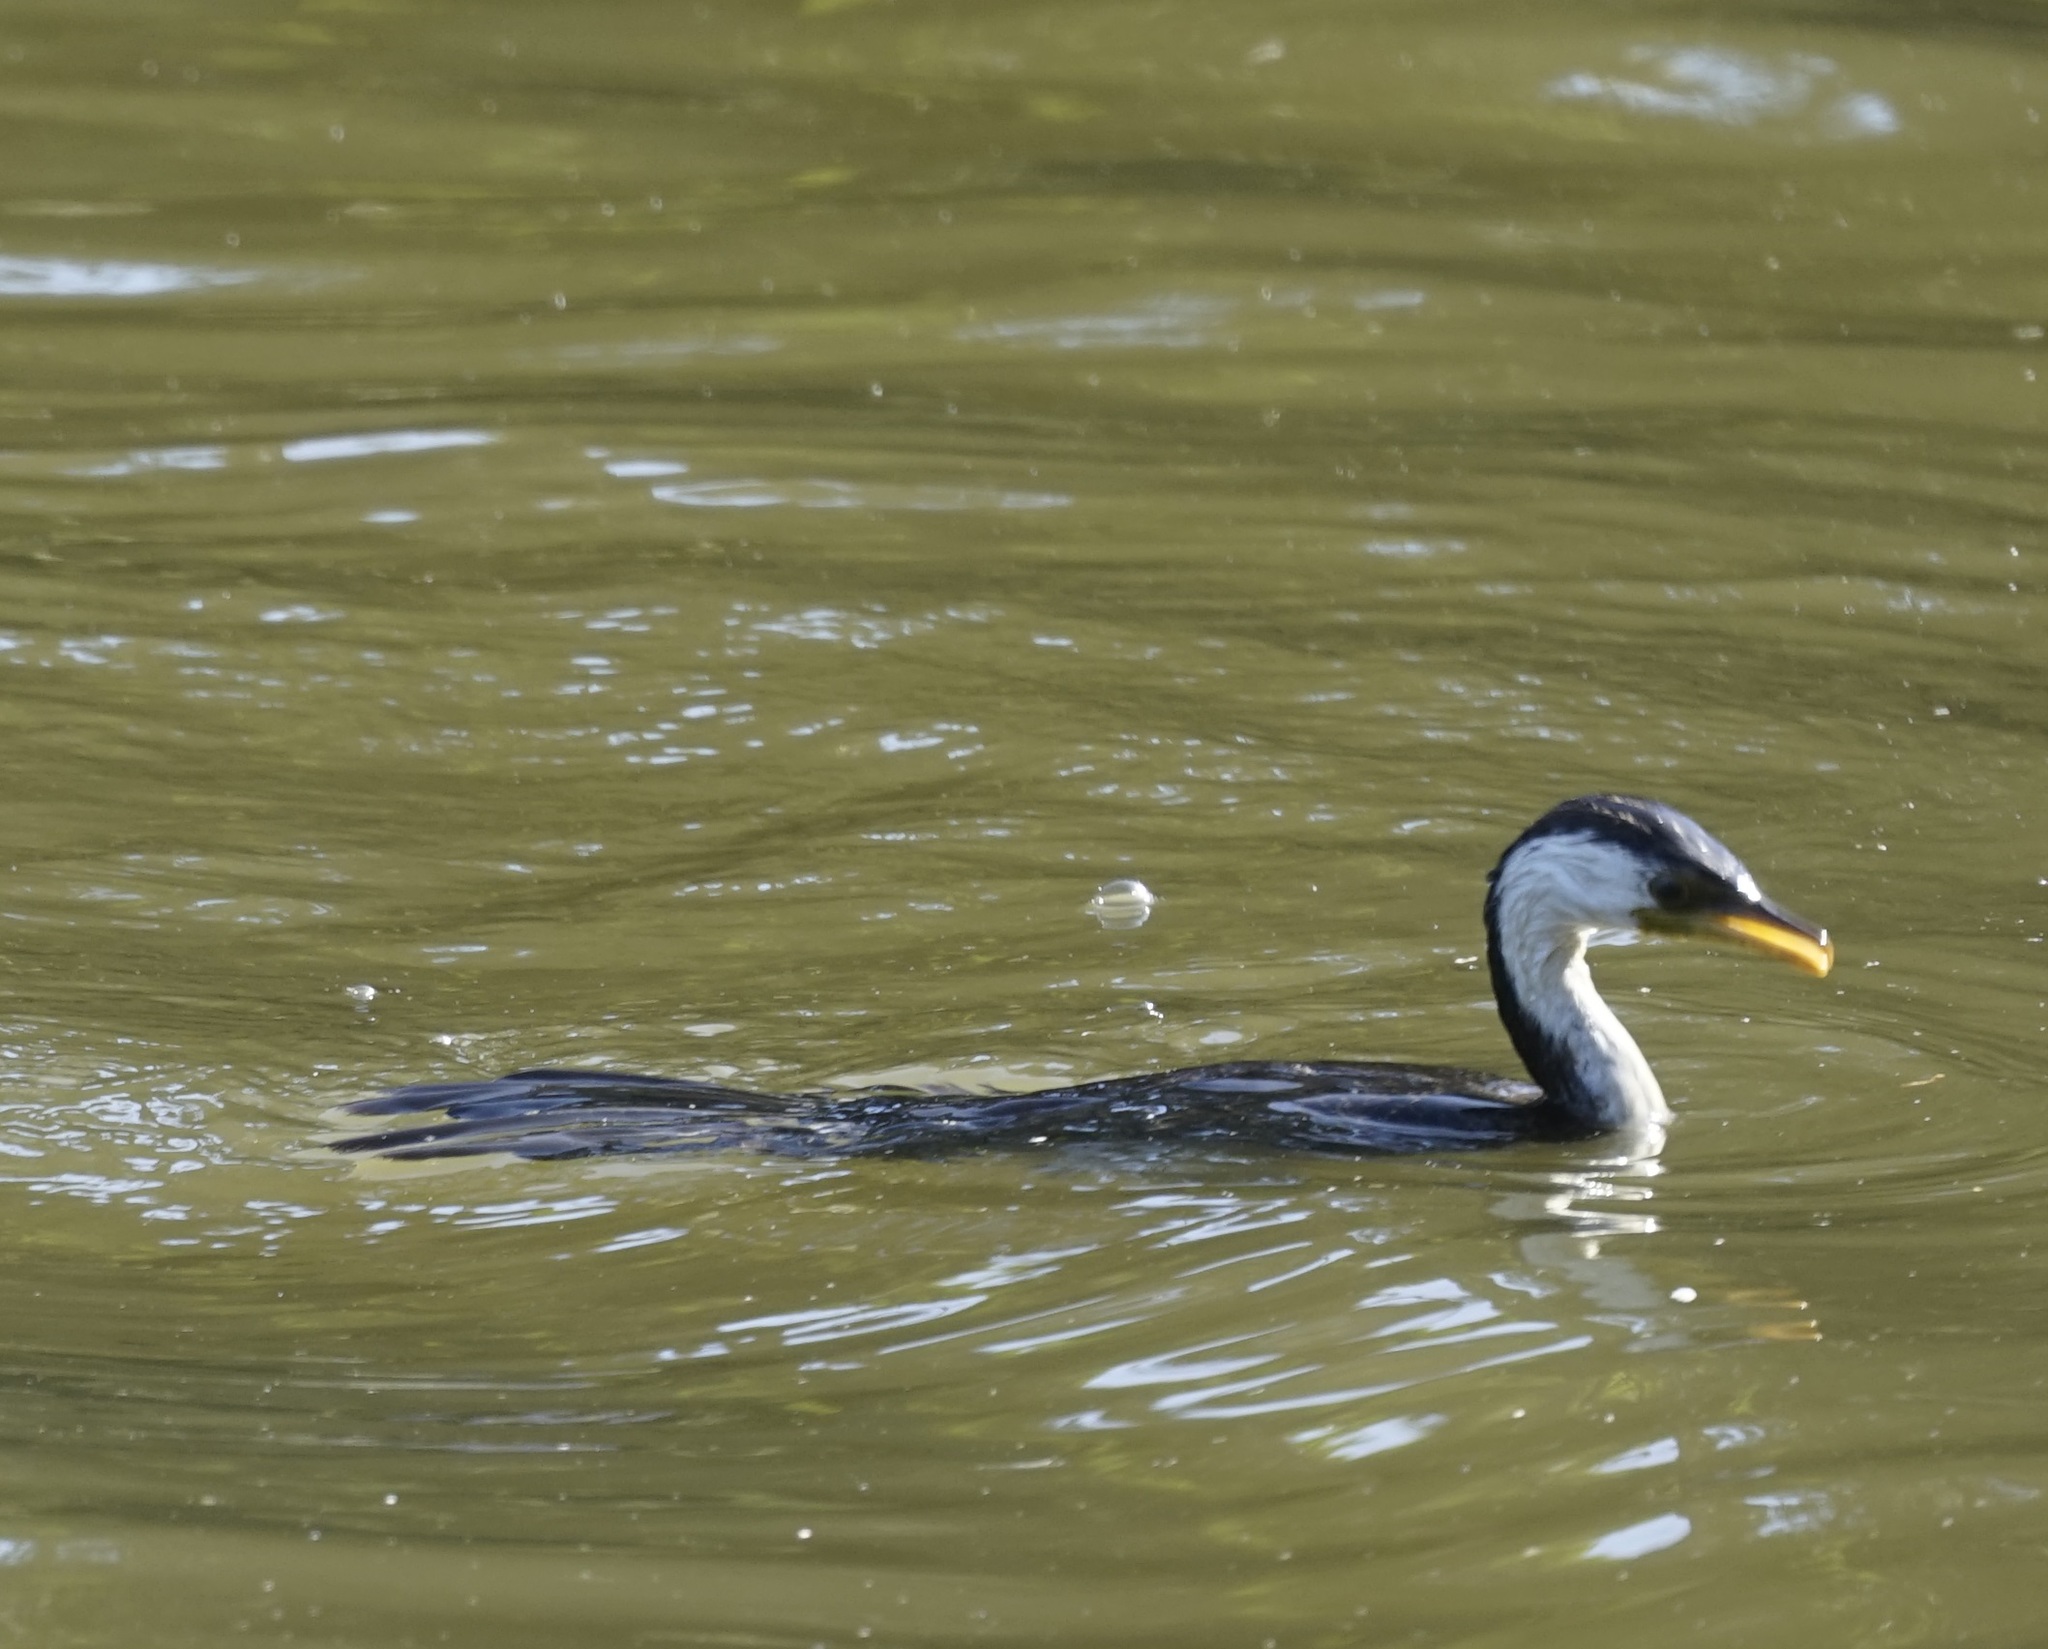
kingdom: Animalia
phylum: Chordata
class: Aves
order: Suliformes
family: Phalacrocoracidae
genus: Microcarbo
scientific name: Microcarbo melanoleucos
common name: Little pied cormorant
